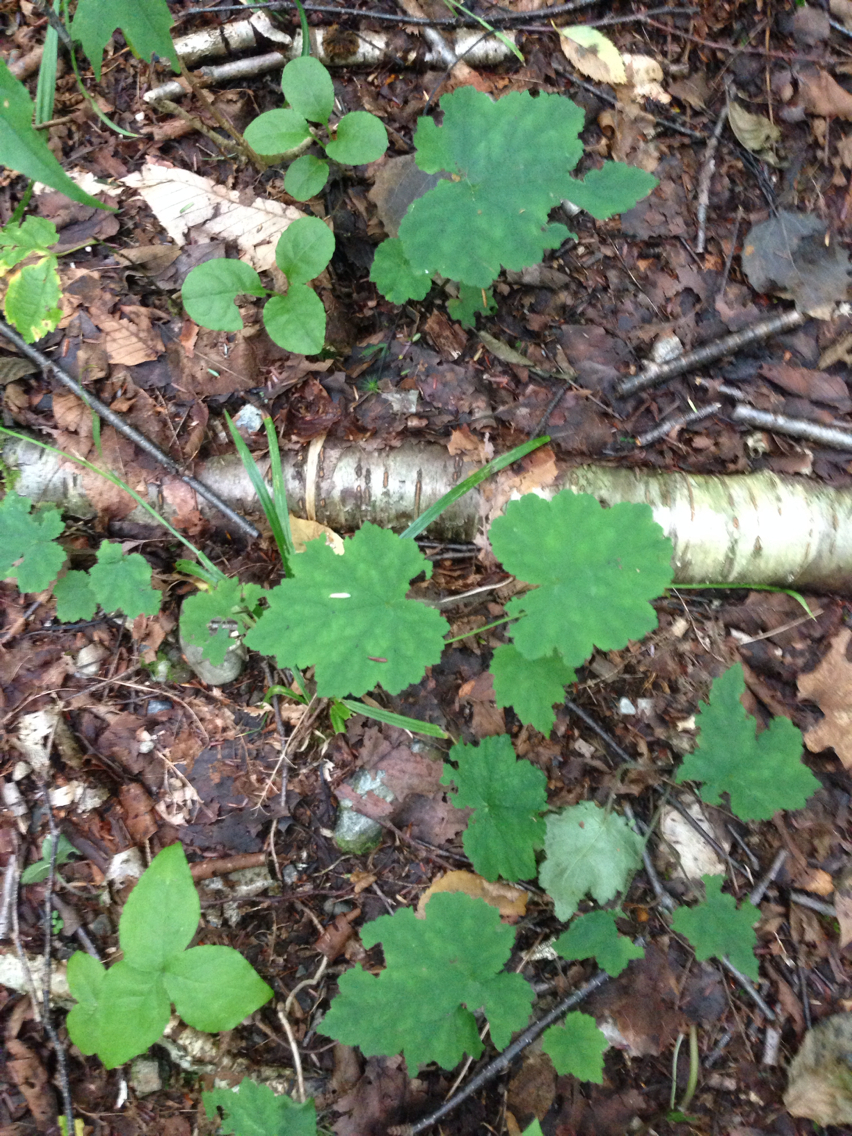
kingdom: Plantae
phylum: Tracheophyta
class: Magnoliopsida
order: Saxifragales
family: Saxifragaceae
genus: Tiarella
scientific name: Tiarella stolonifera
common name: Stoloniferous foamflower
